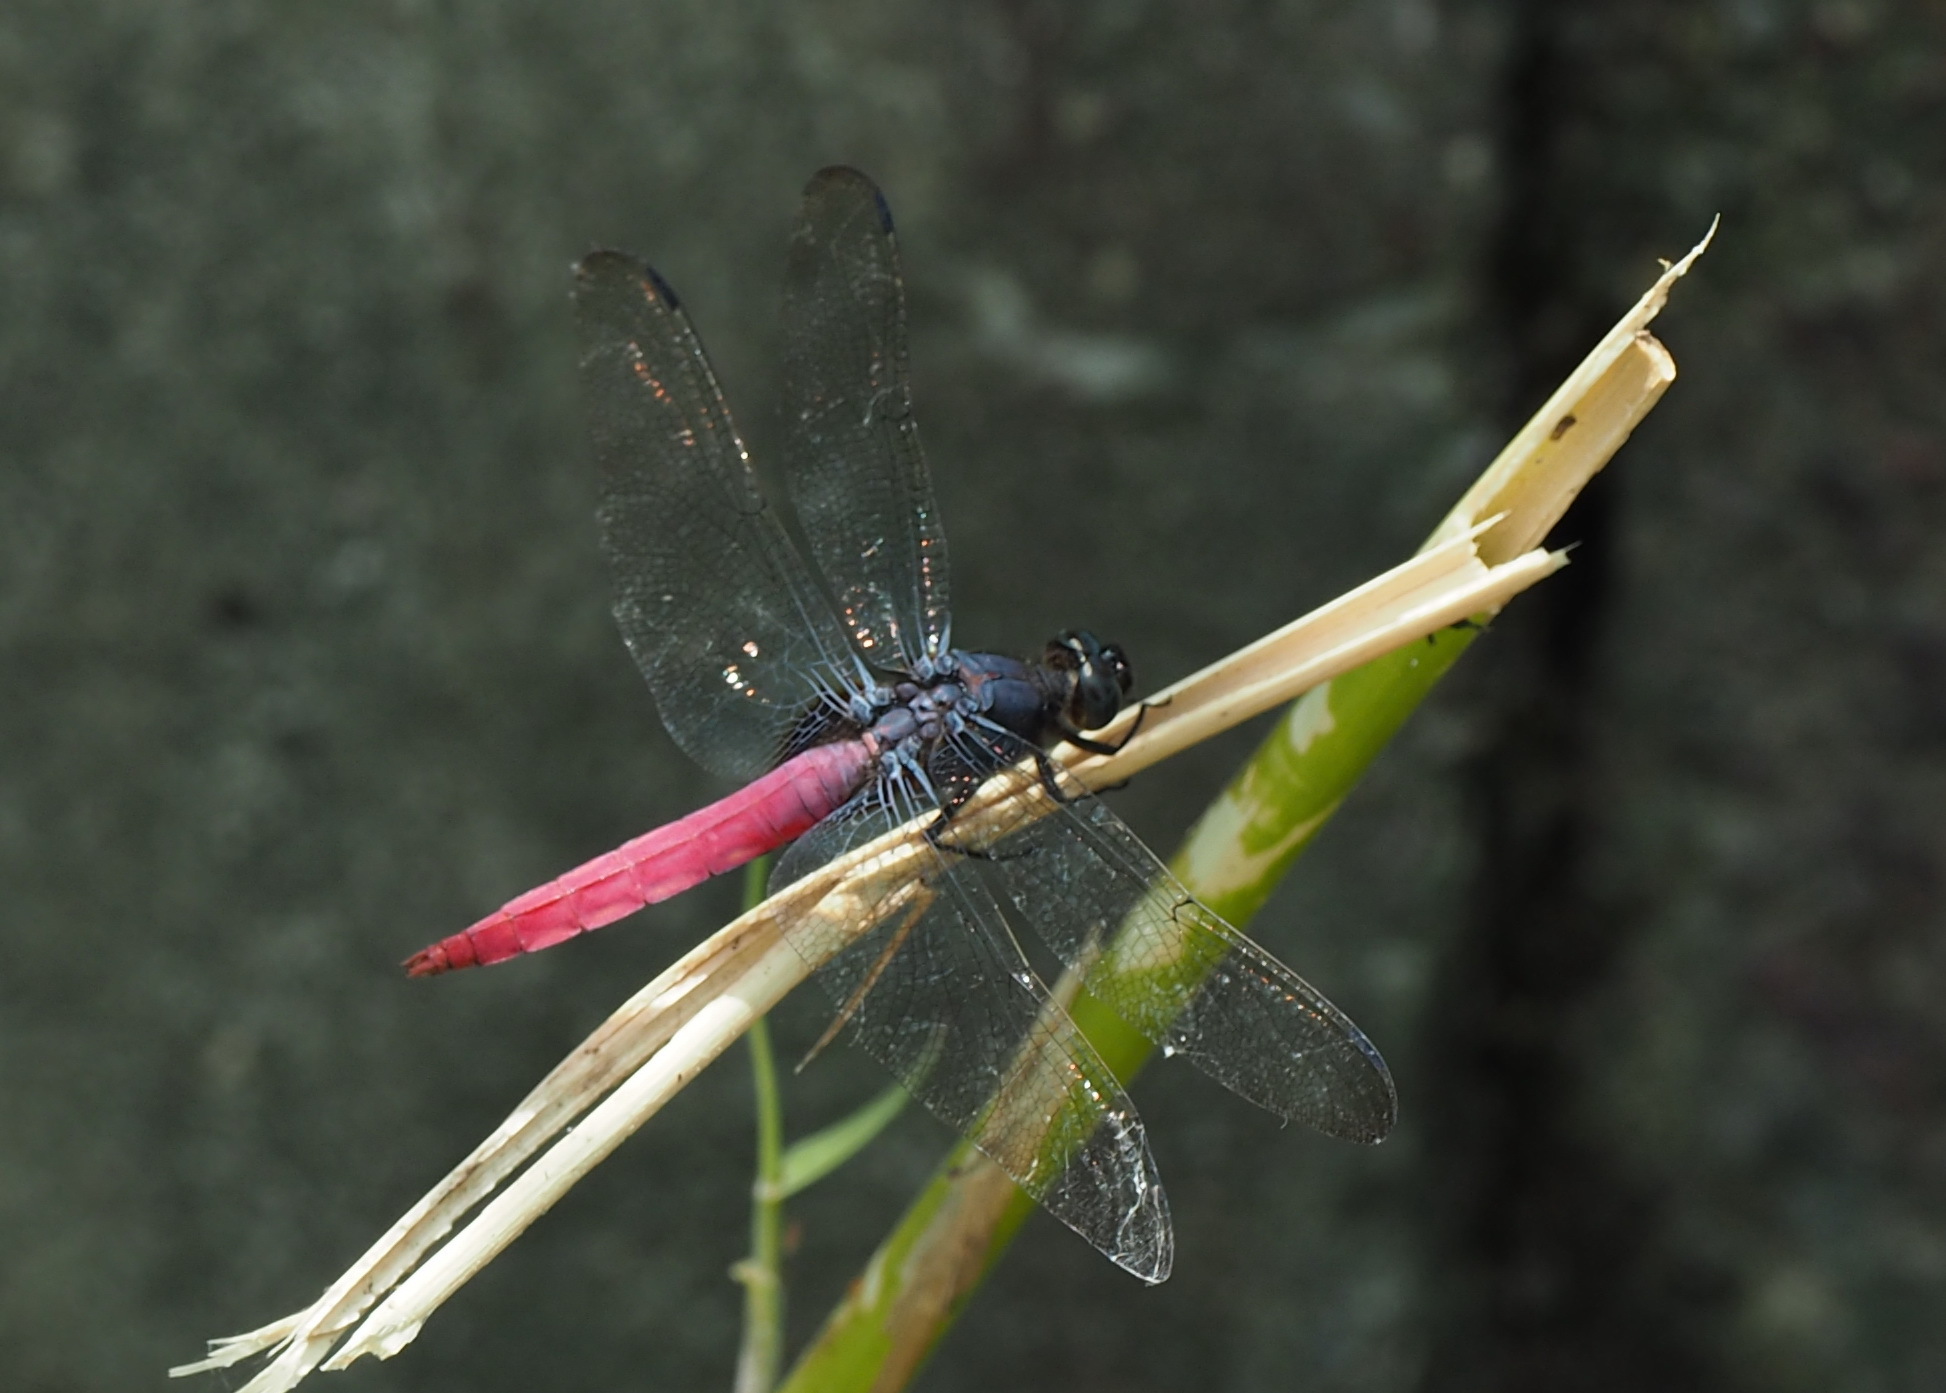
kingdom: Animalia
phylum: Arthropoda
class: Insecta
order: Odonata
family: Libellulidae
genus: Orthetrum
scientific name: Orthetrum pruinosum
